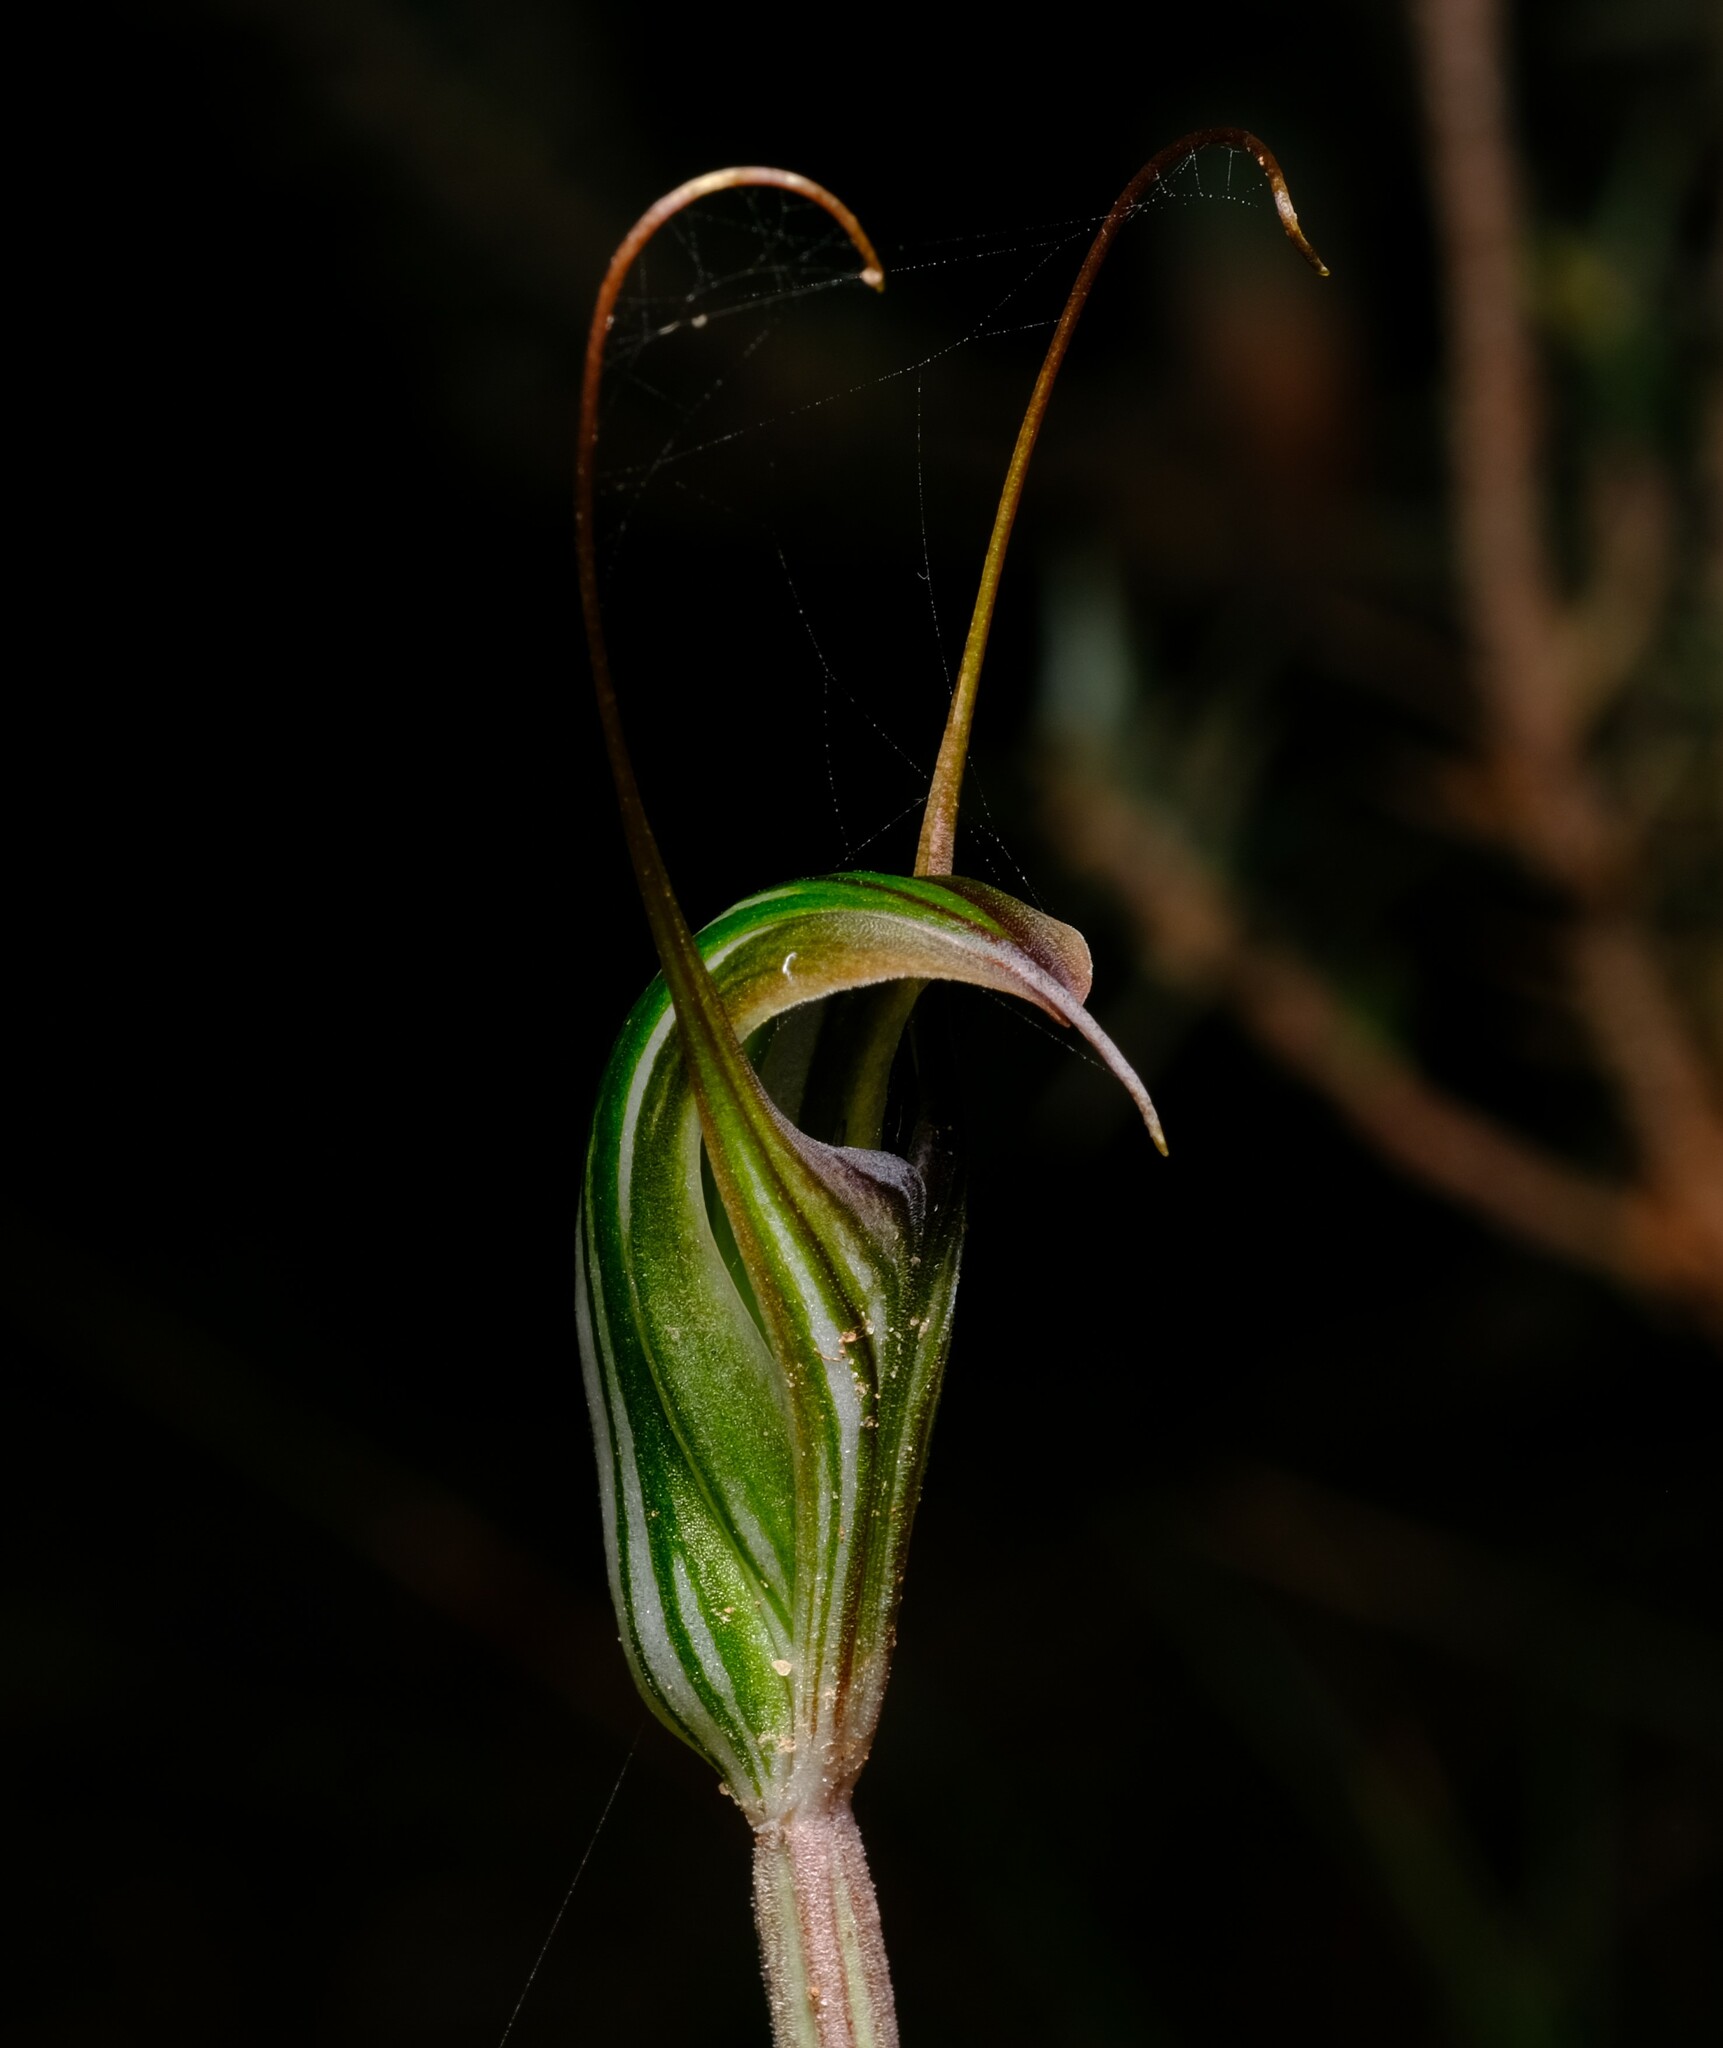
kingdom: Plantae
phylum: Tracheophyta
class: Liliopsida
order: Asparagales
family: Orchidaceae
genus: Pterostylis
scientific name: Pterostylis alata
